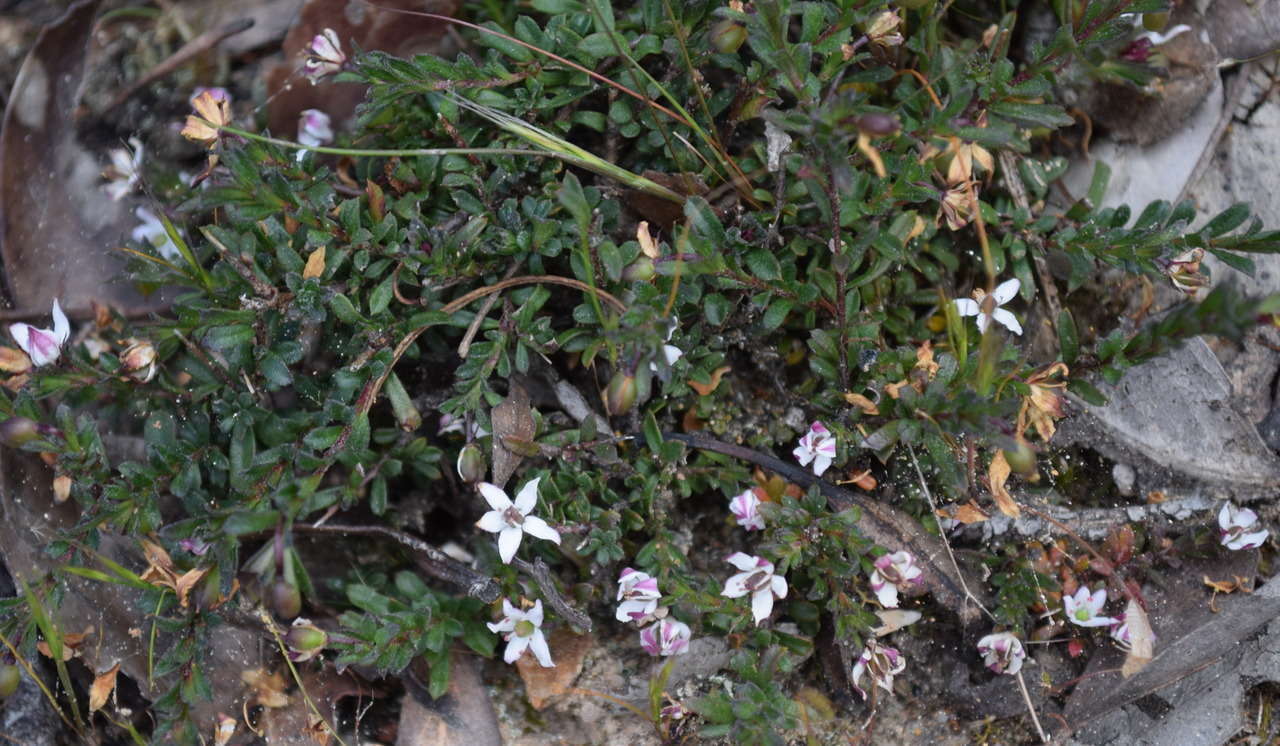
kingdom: Plantae
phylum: Tracheophyta
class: Magnoliopsida
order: Apiales
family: Pittosporaceae
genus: Rhytidosporum
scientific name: Rhytidosporum procumbens
